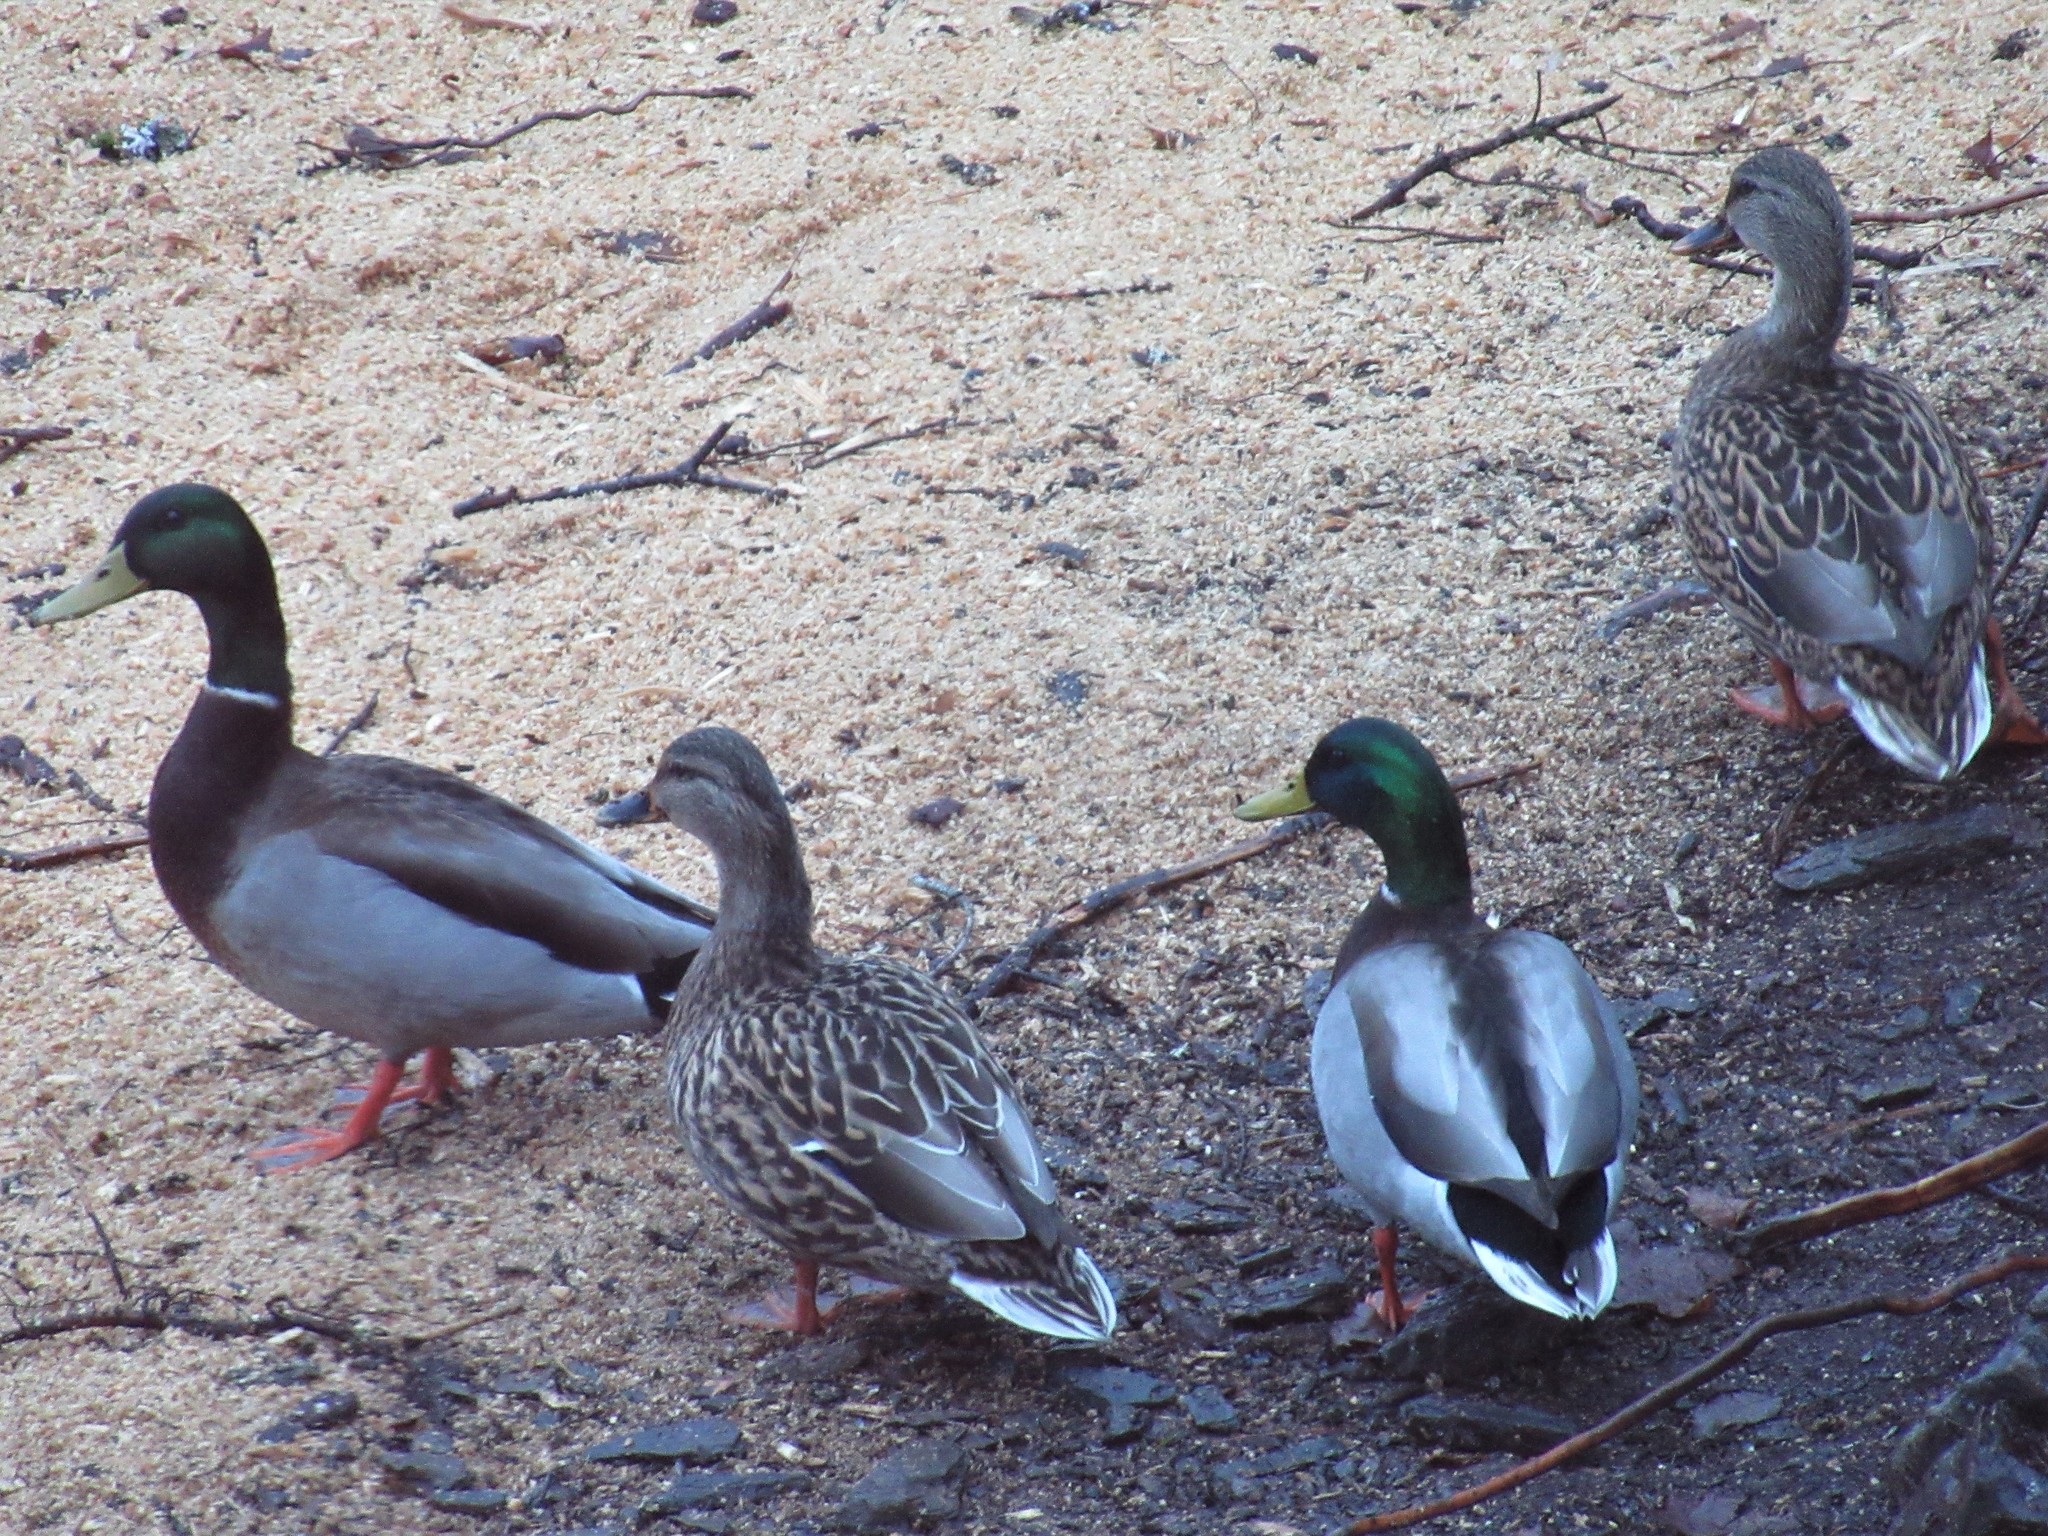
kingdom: Animalia
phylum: Chordata
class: Aves
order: Anseriformes
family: Anatidae
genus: Anas
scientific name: Anas platyrhynchos
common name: Mallard
